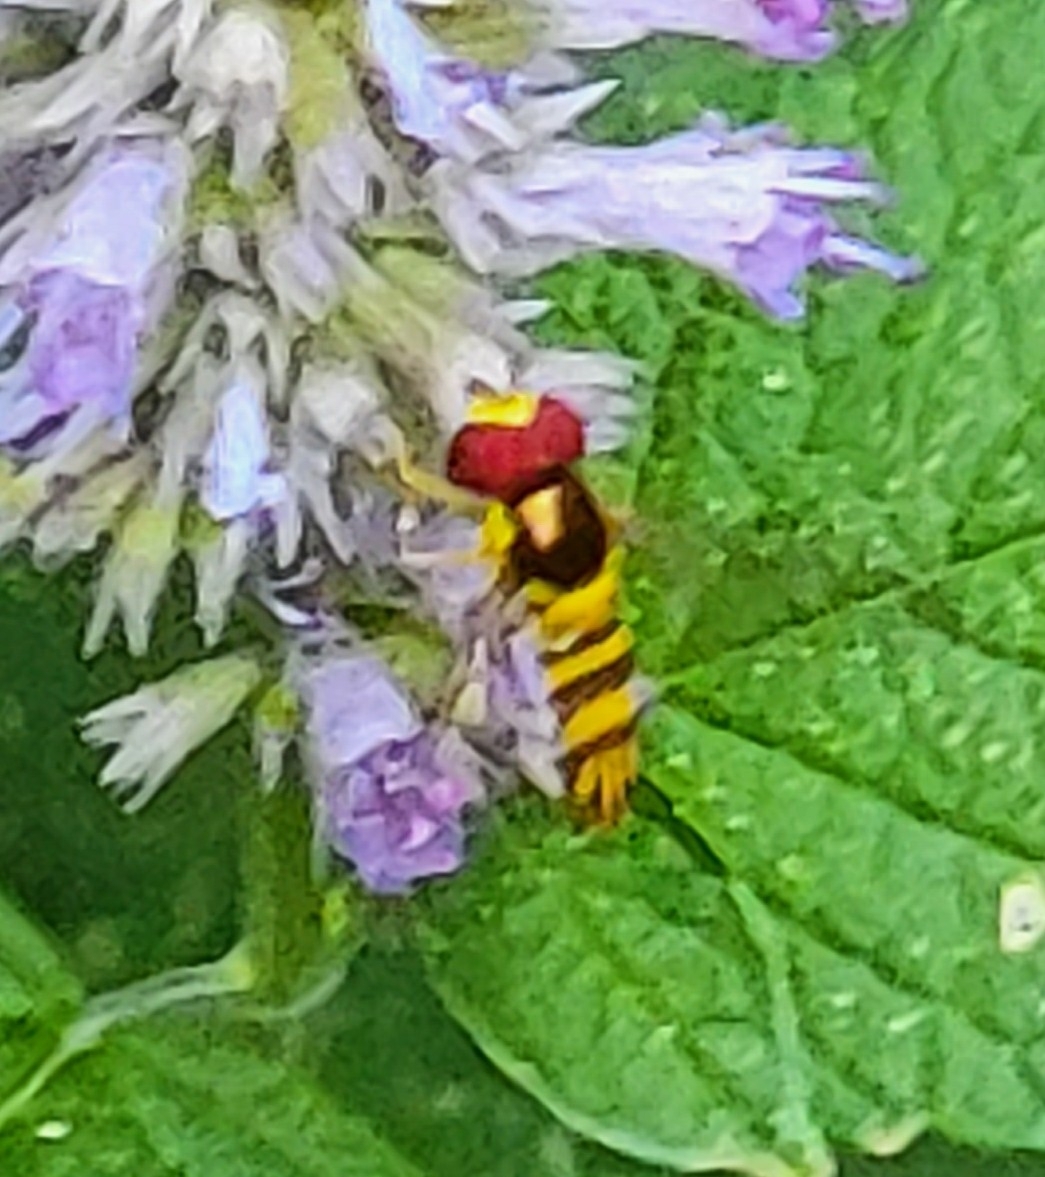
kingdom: Animalia
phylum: Arthropoda
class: Insecta
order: Diptera
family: Syrphidae
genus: Allograpta
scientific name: Allograpta obliqua
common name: Common oblique syrphid
